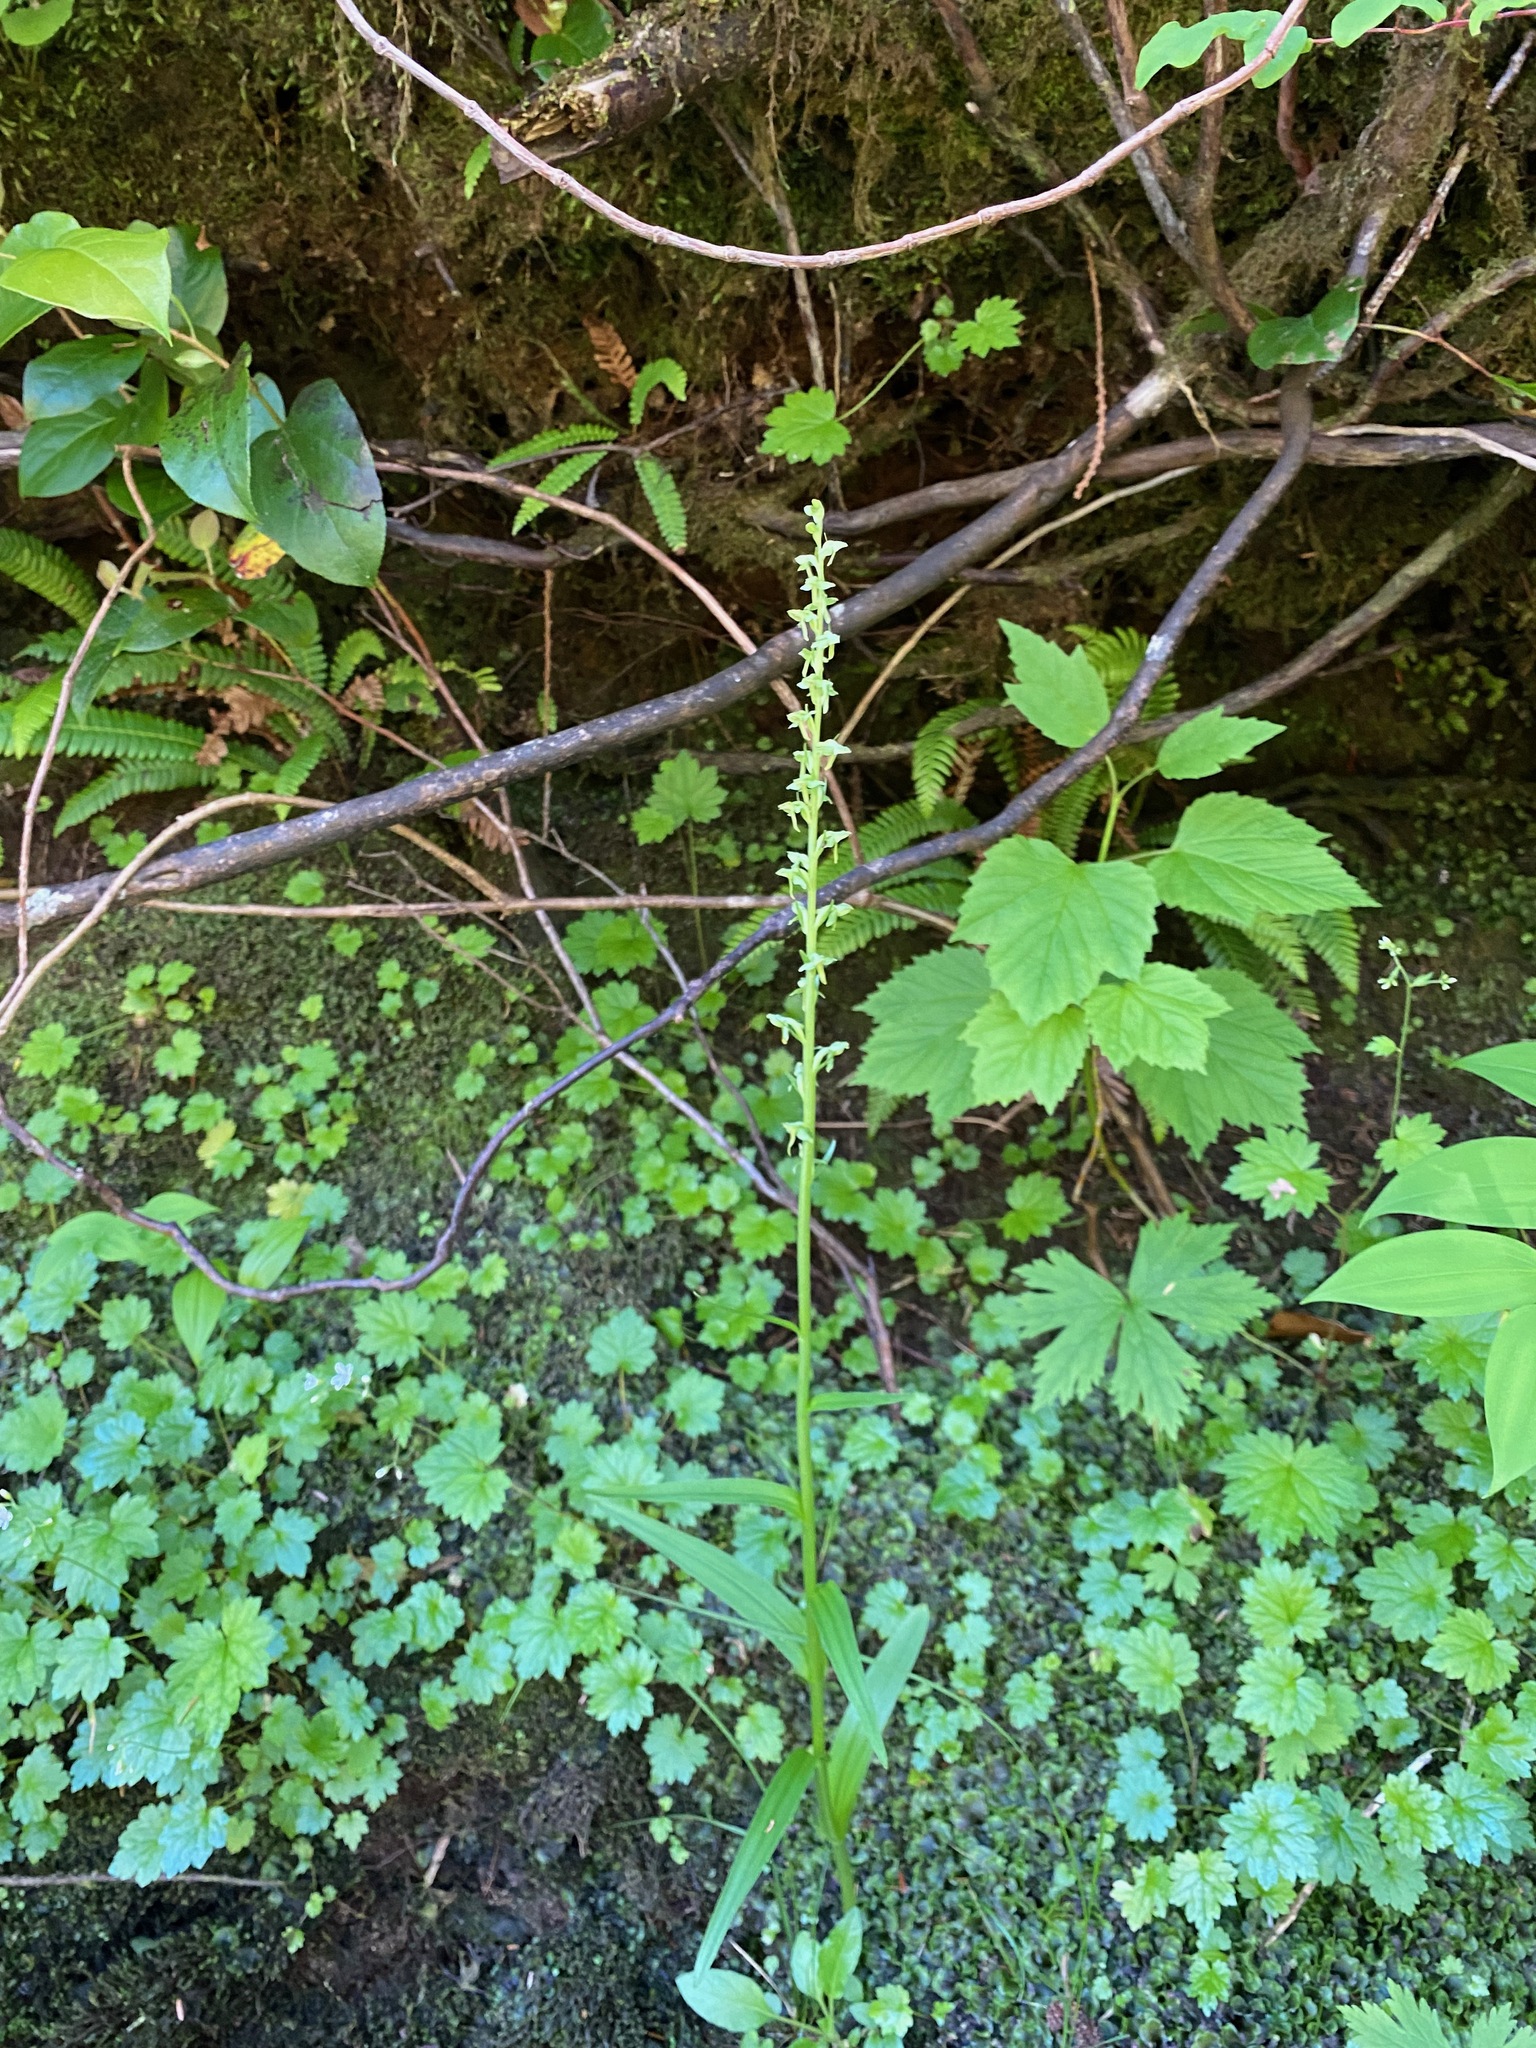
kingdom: Plantae
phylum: Tracheophyta
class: Liliopsida
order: Asparagales
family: Orchidaceae
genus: Platanthera
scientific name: Platanthera stricta
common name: Slender bog orchid
